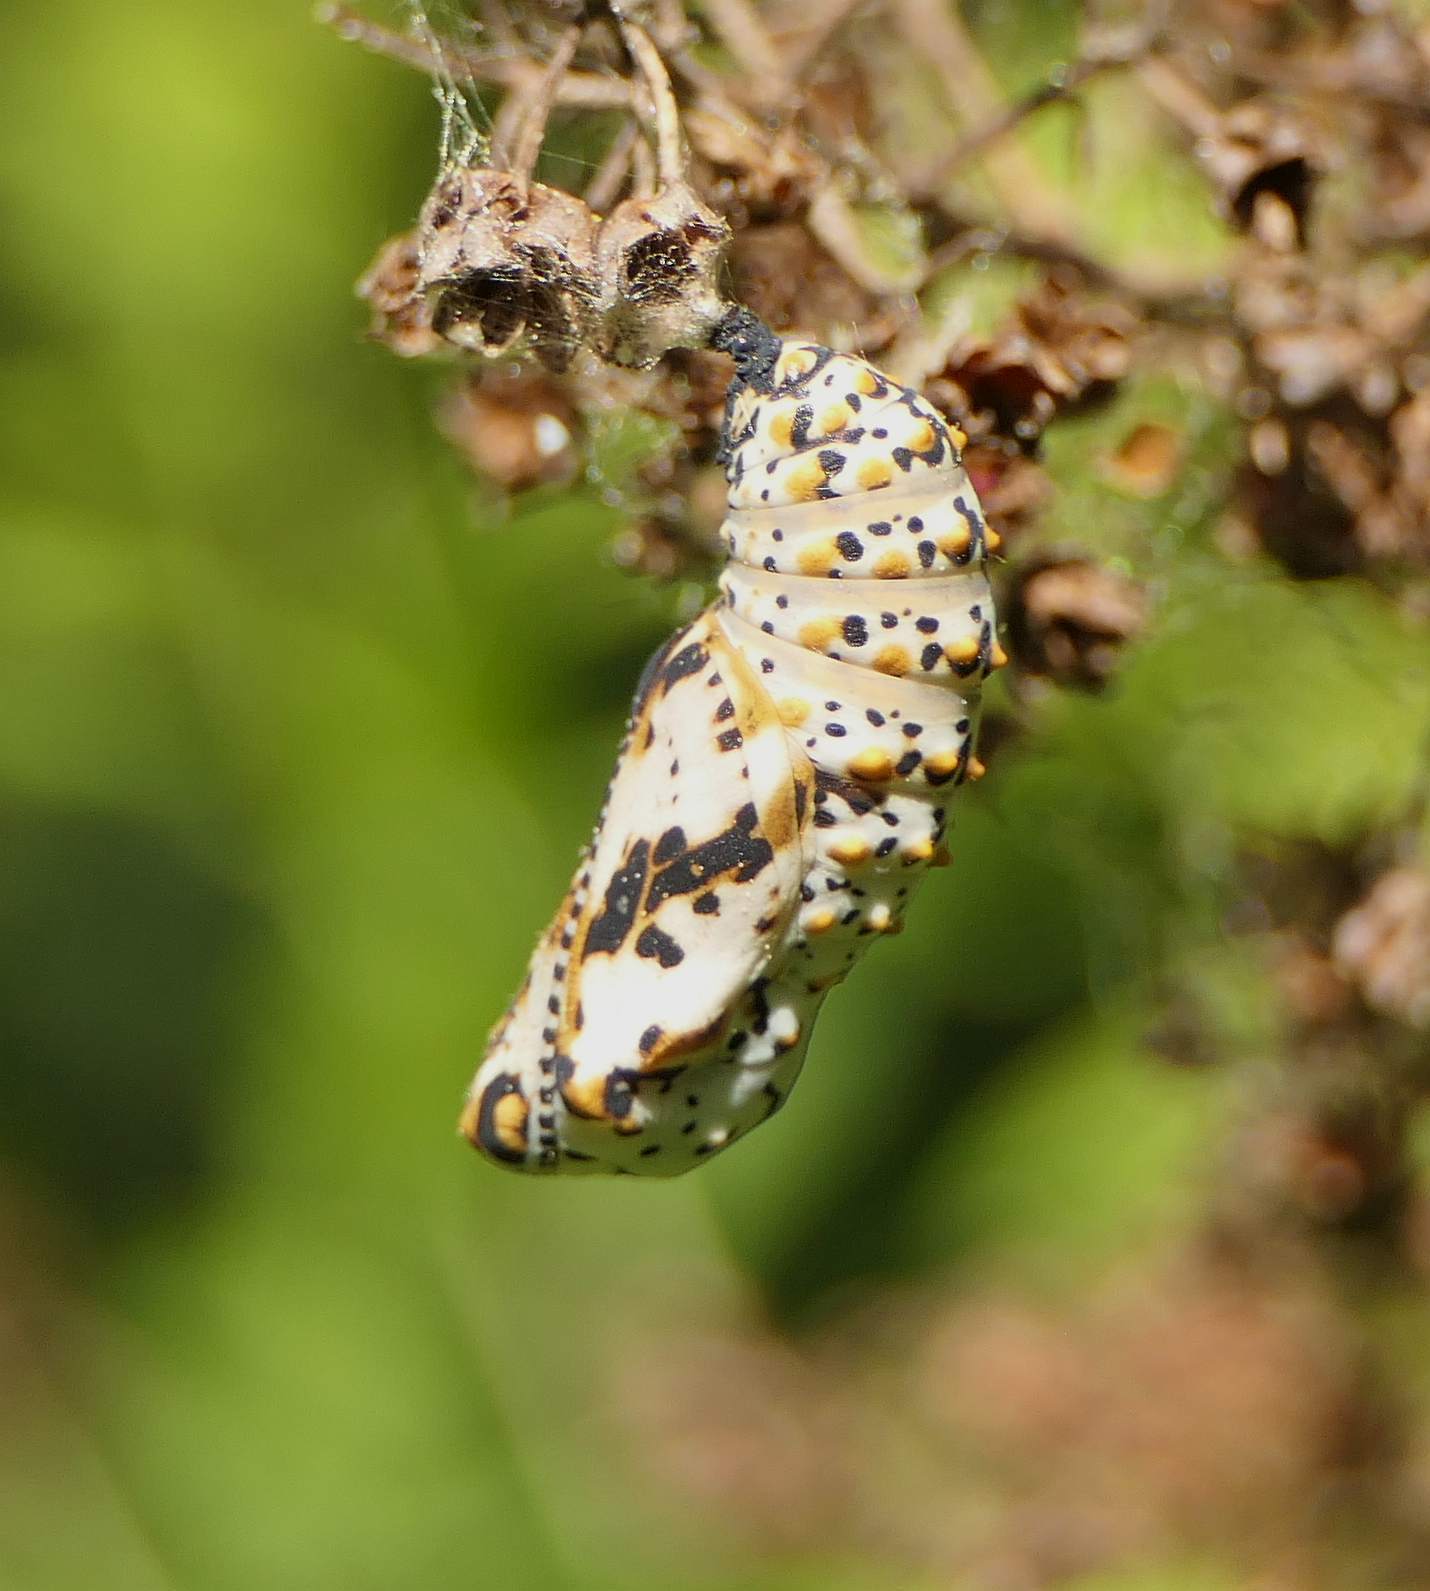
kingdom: Animalia
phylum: Arthropoda
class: Insecta
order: Lepidoptera
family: Nymphalidae
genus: Euphydryas
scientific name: Euphydryas phaeton
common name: Baltimore checkerspot
